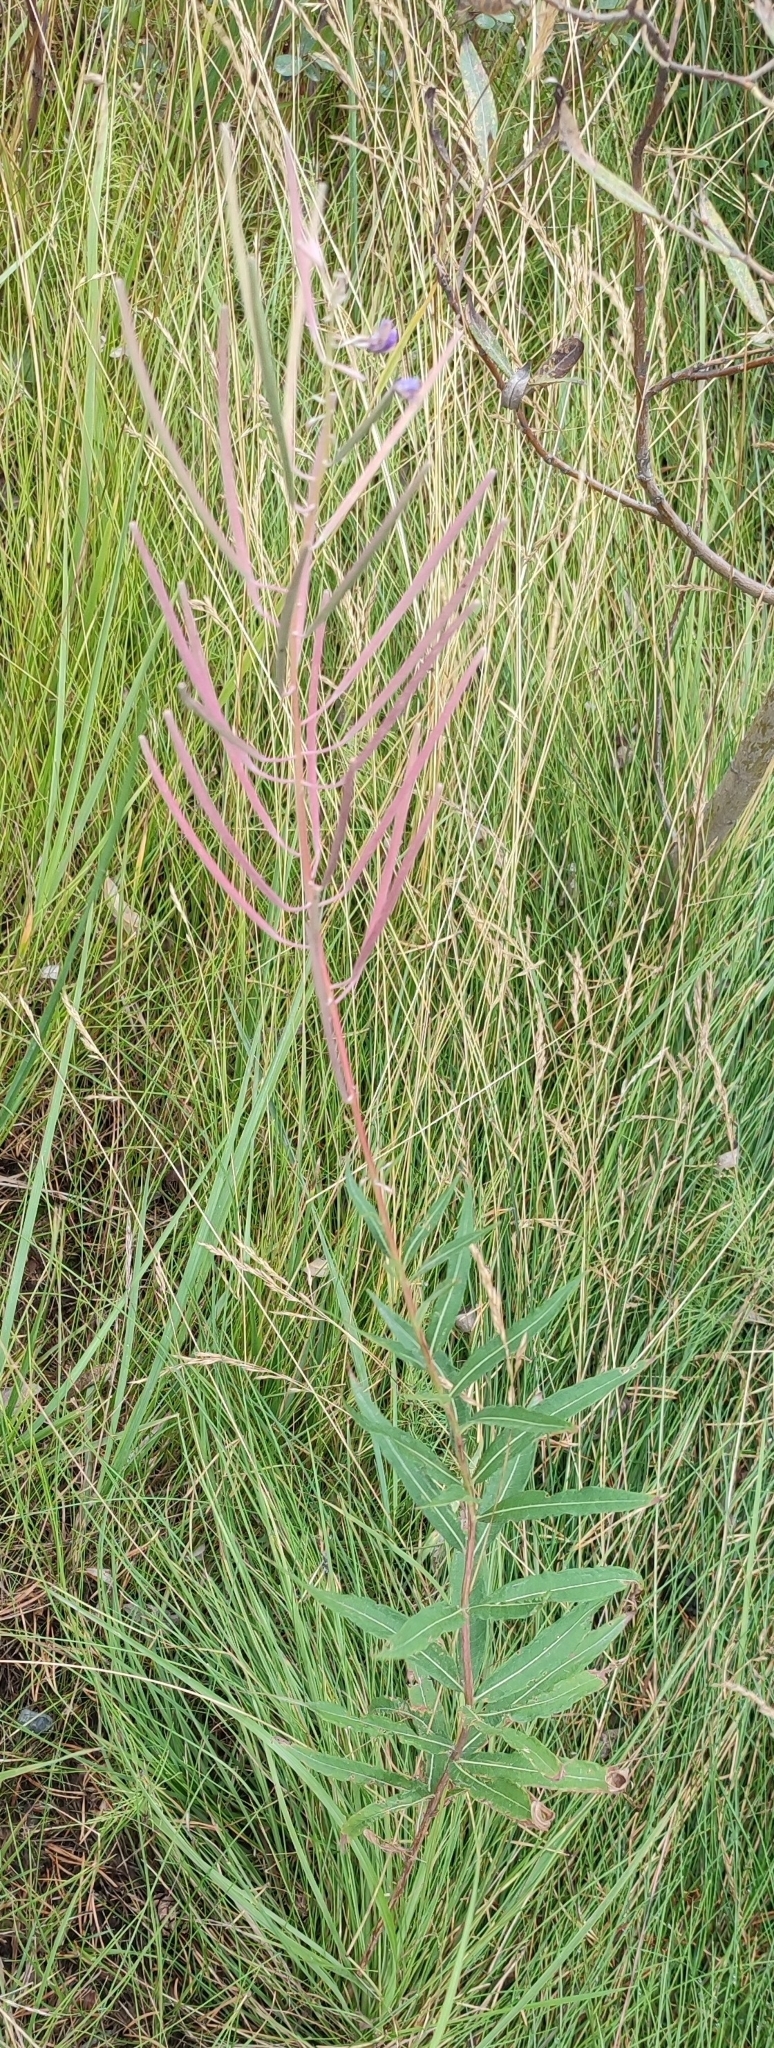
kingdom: Plantae
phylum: Tracheophyta
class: Magnoliopsida
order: Myrtales
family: Onagraceae
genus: Chamaenerion
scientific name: Chamaenerion angustifolium
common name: Fireweed
